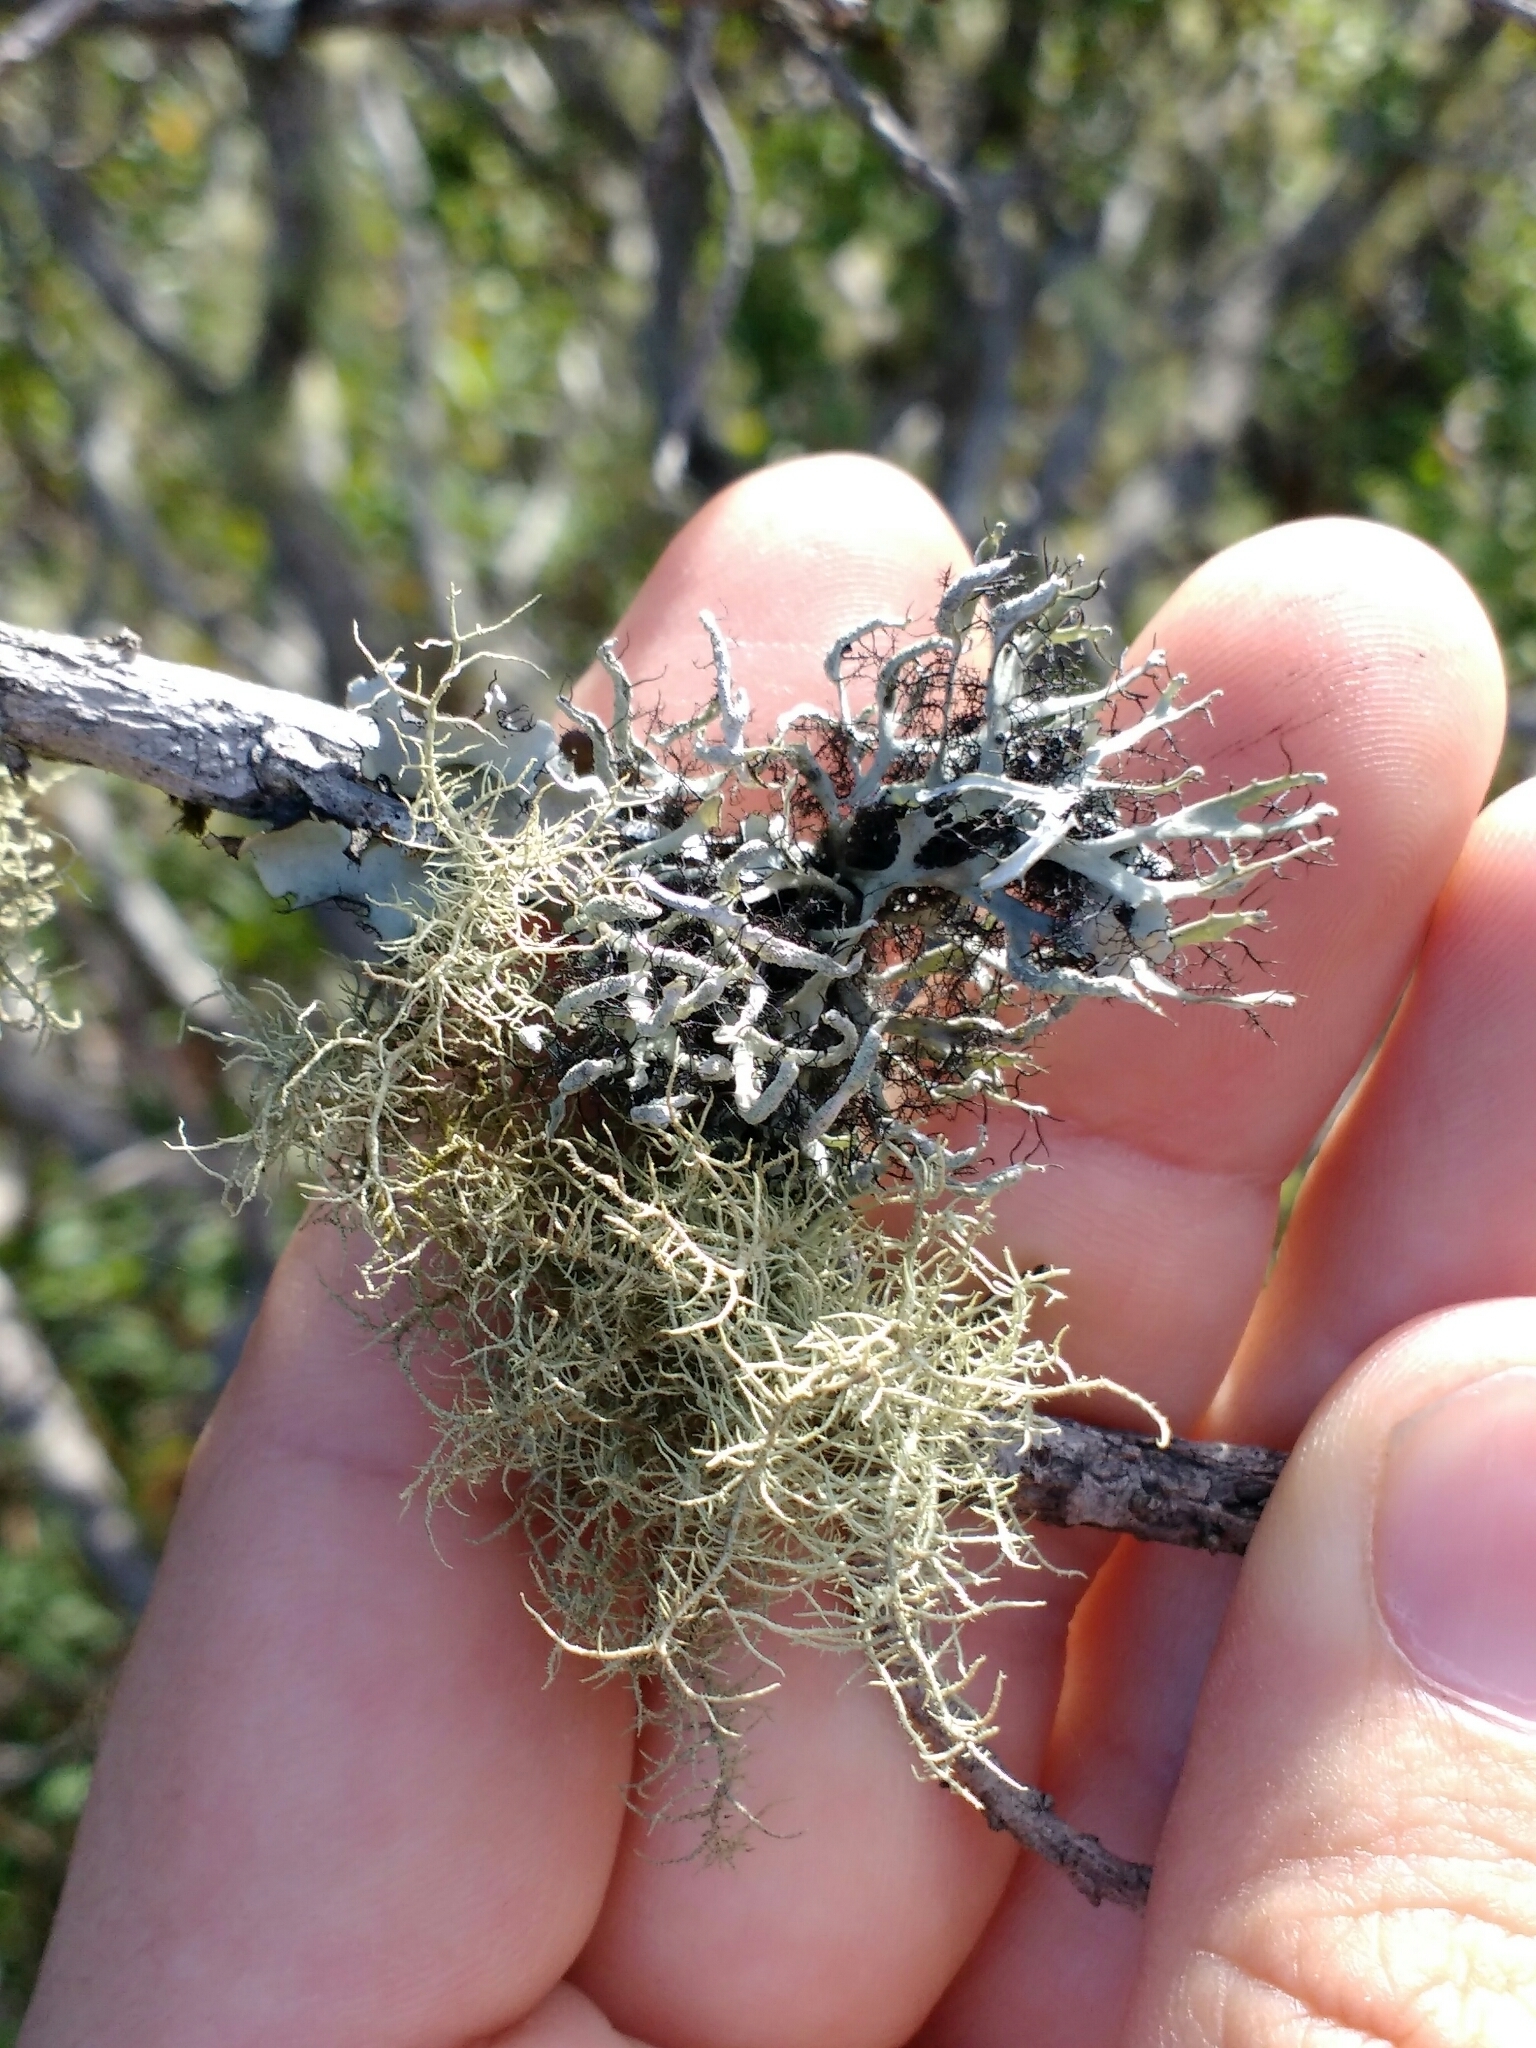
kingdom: Fungi
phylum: Ascomycota
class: Lecanoromycetes
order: Caliciales
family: Physciaceae
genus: Leucodermia
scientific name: Leucodermia leucomelos
